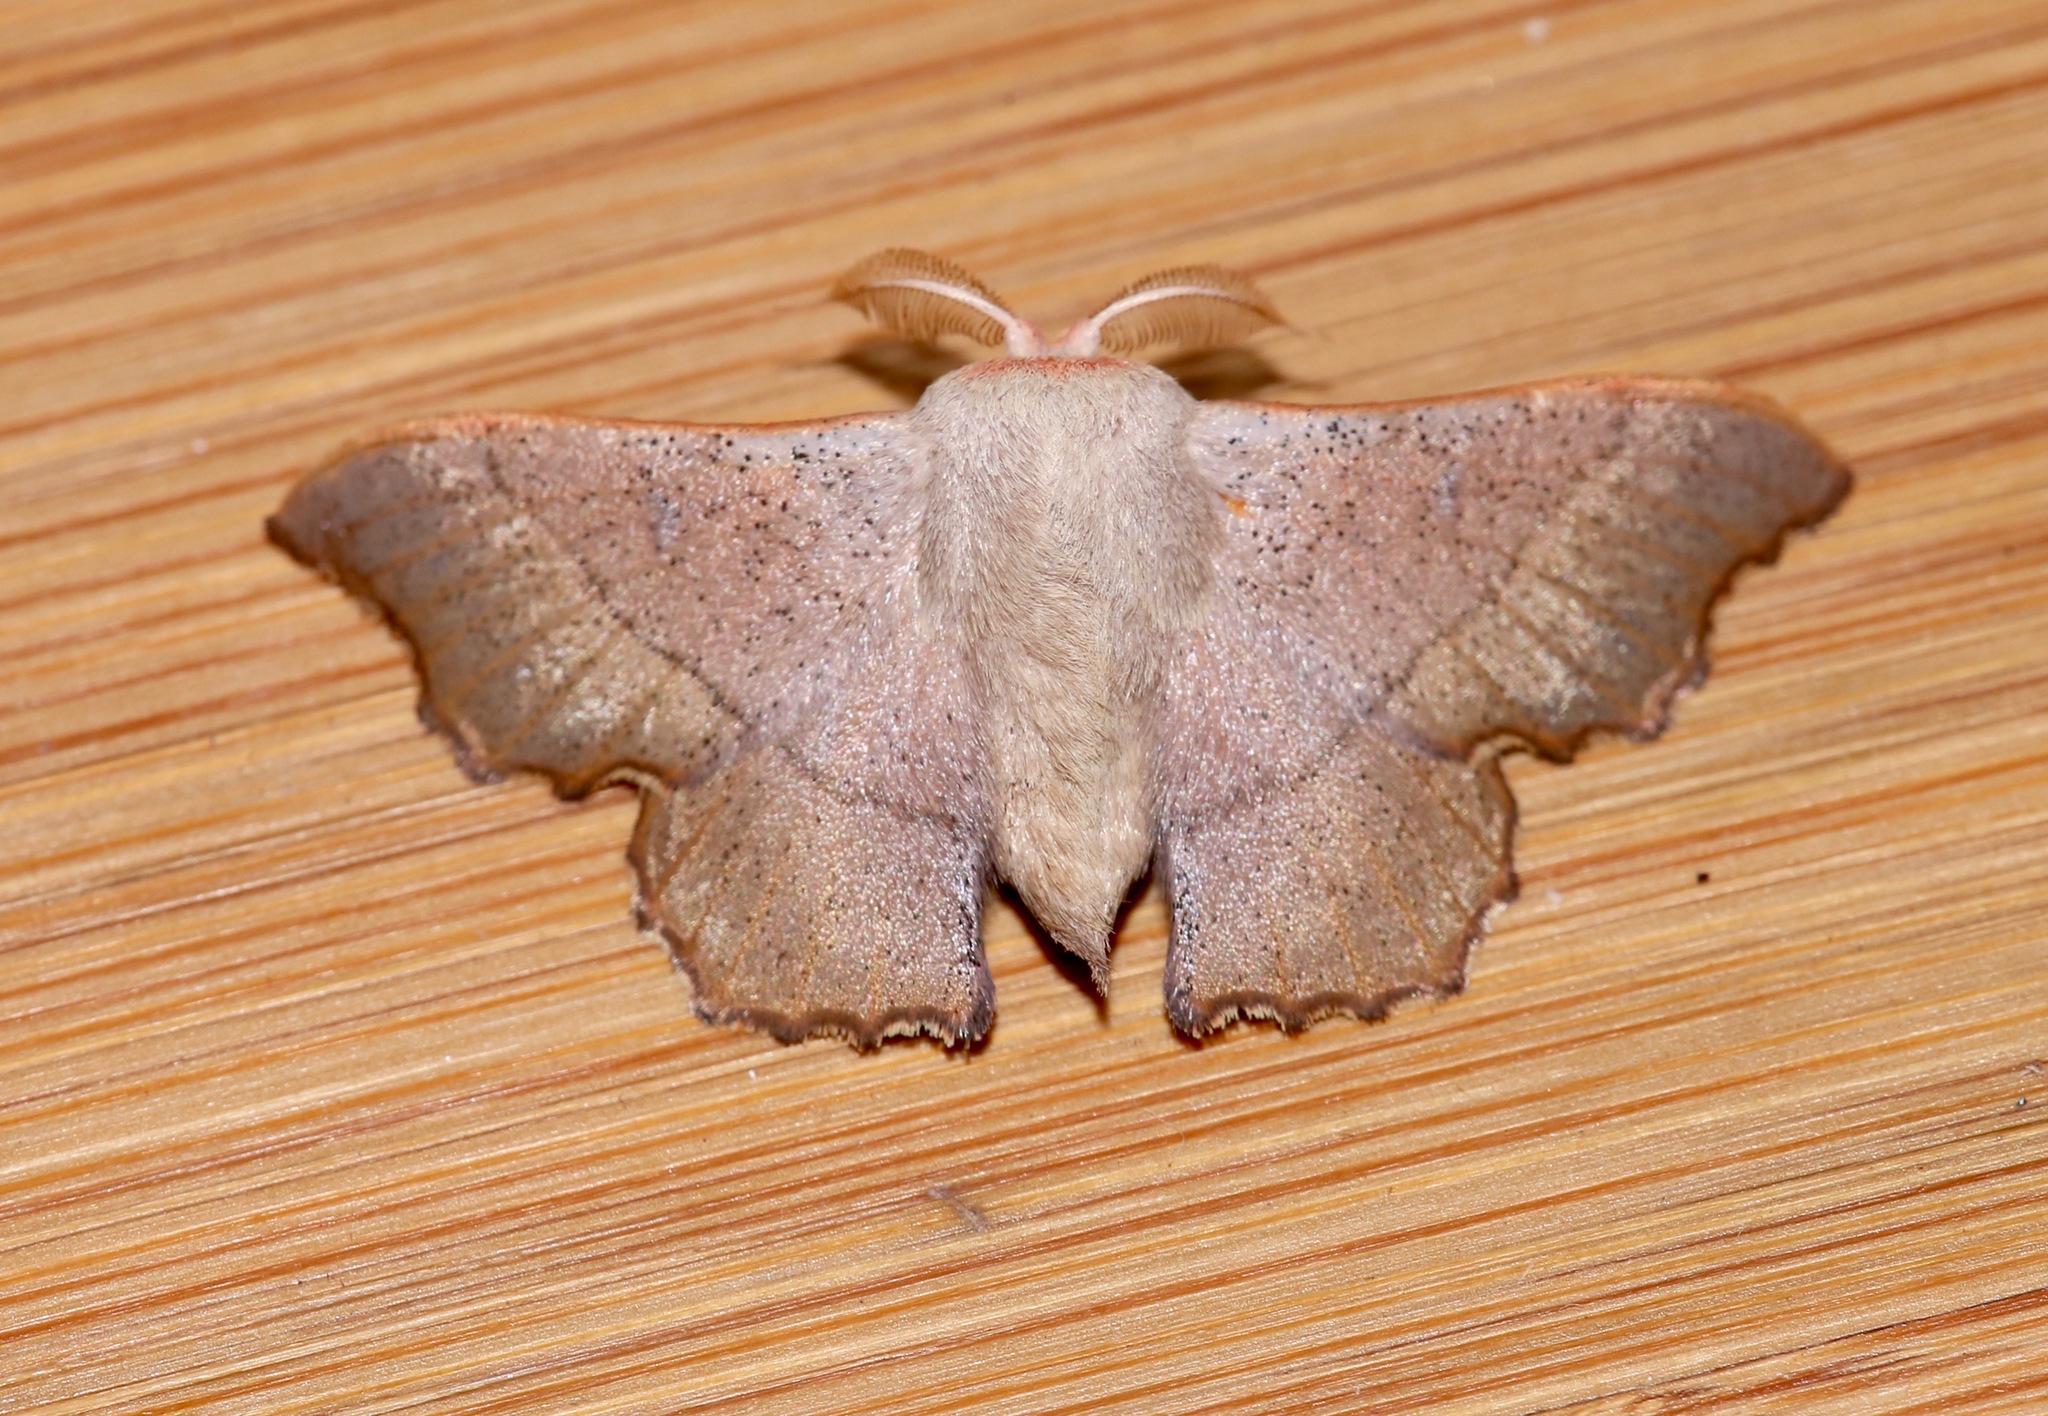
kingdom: Animalia
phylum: Arthropoda
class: Insecta
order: Lepidoptera
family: Mimallonidae
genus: Lacosoma
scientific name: Lacosoma medalla
